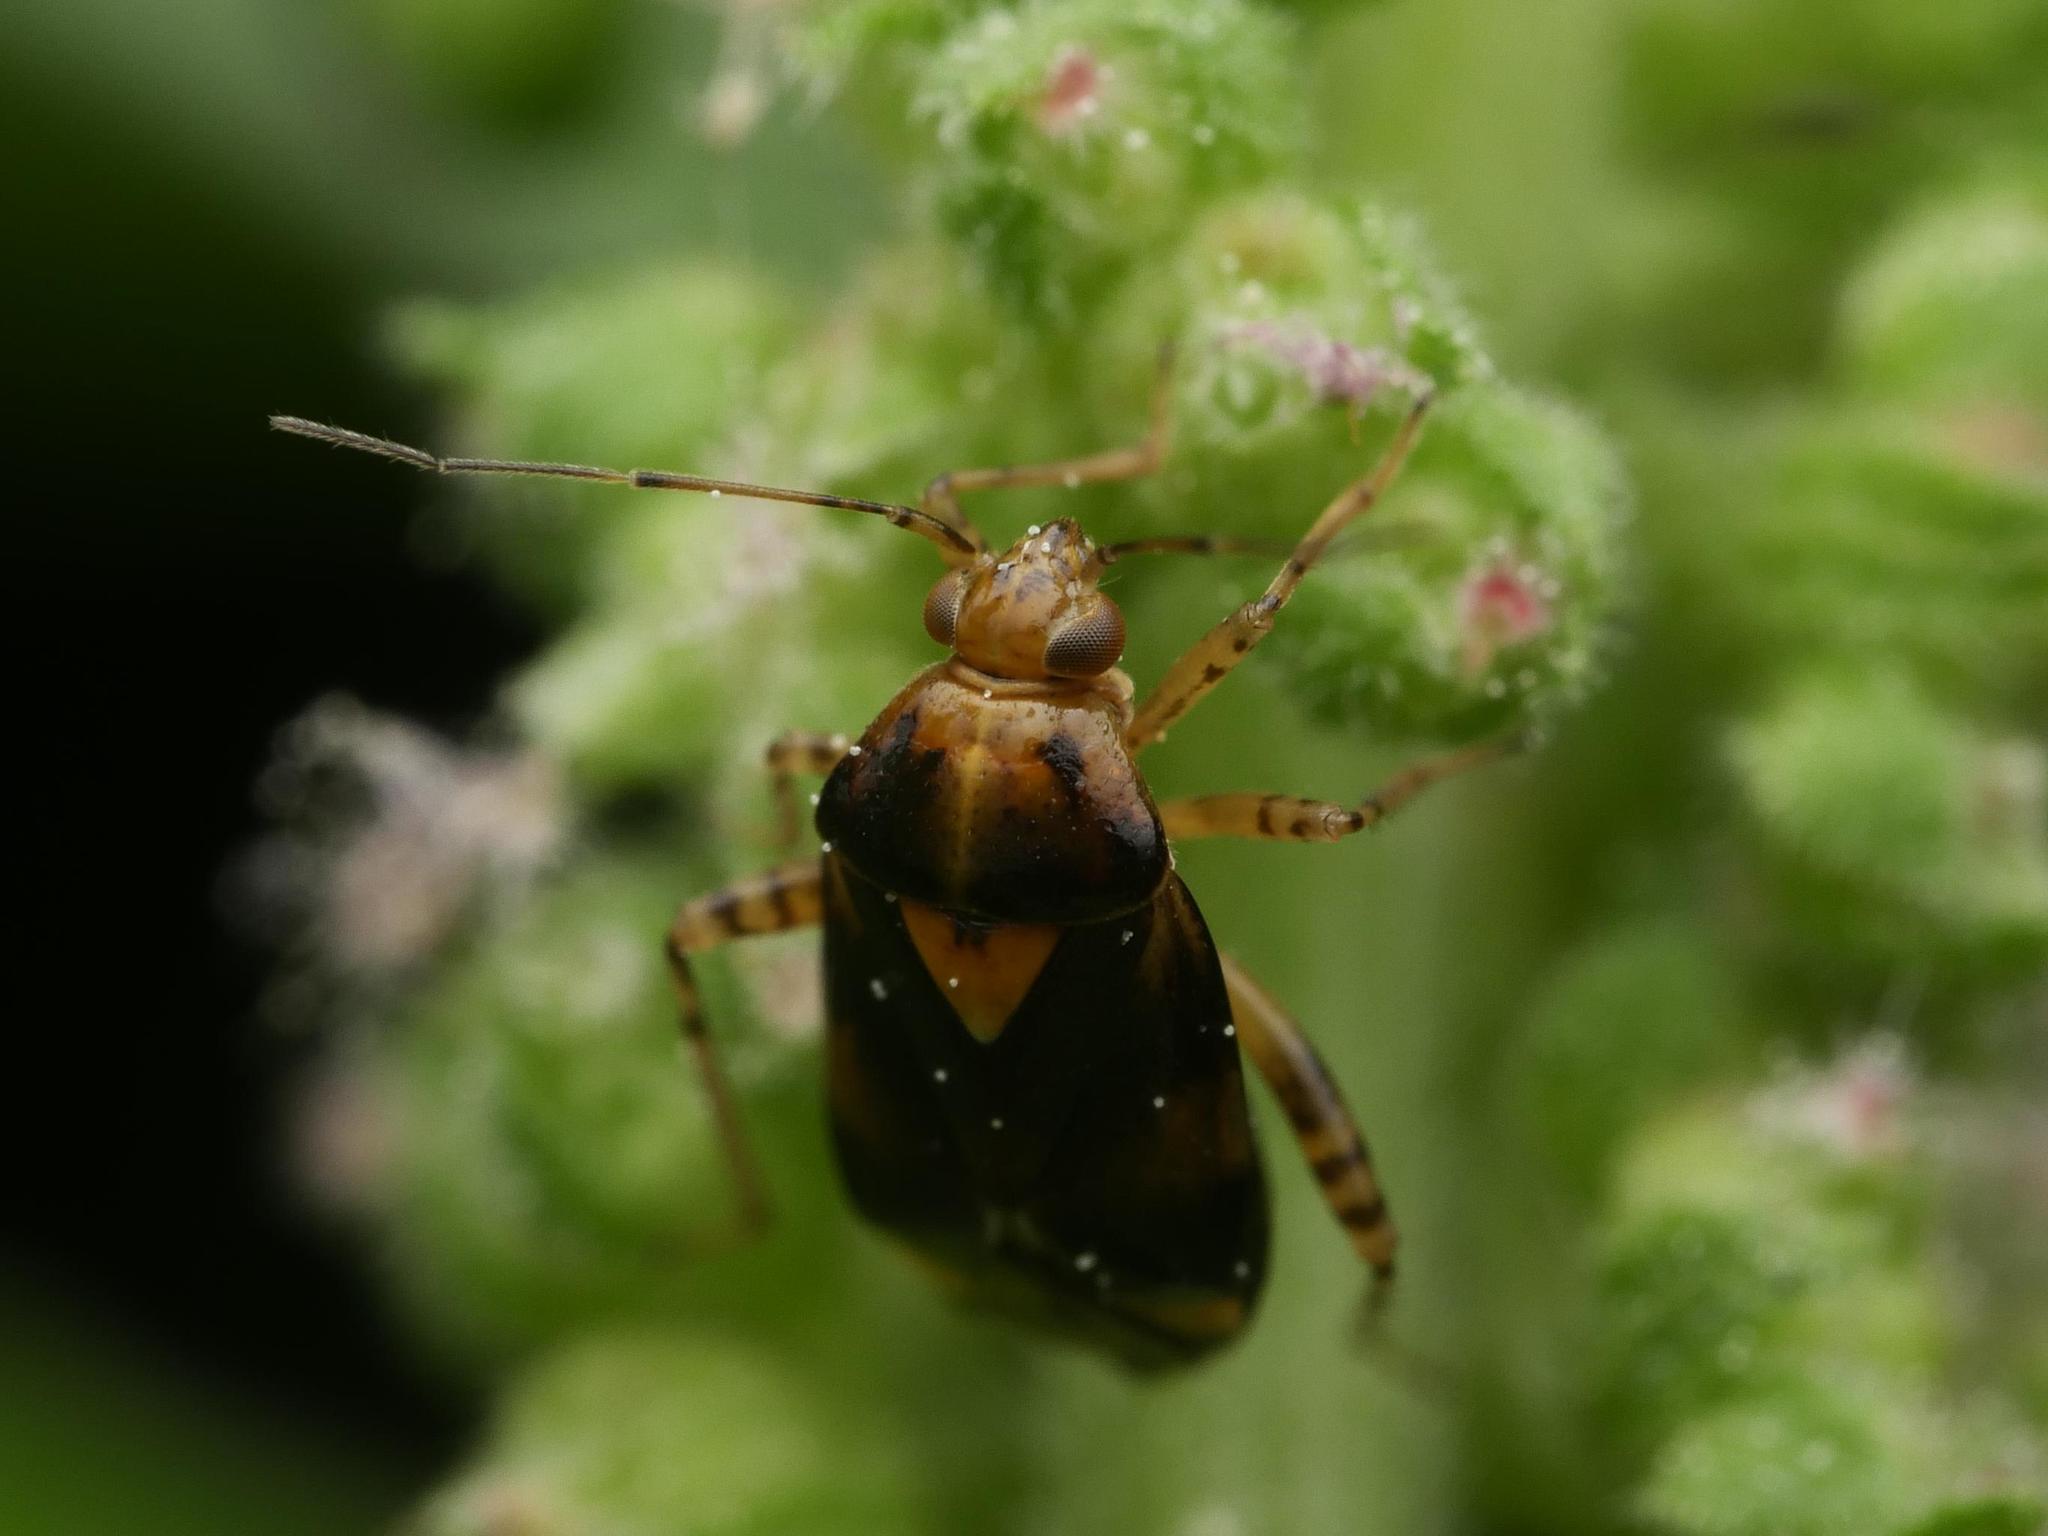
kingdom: Animalia
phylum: Arthropoda
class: Insecta
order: Hemiptera
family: Miridae
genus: Liocoris
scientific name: Liocoris tripustulatus
